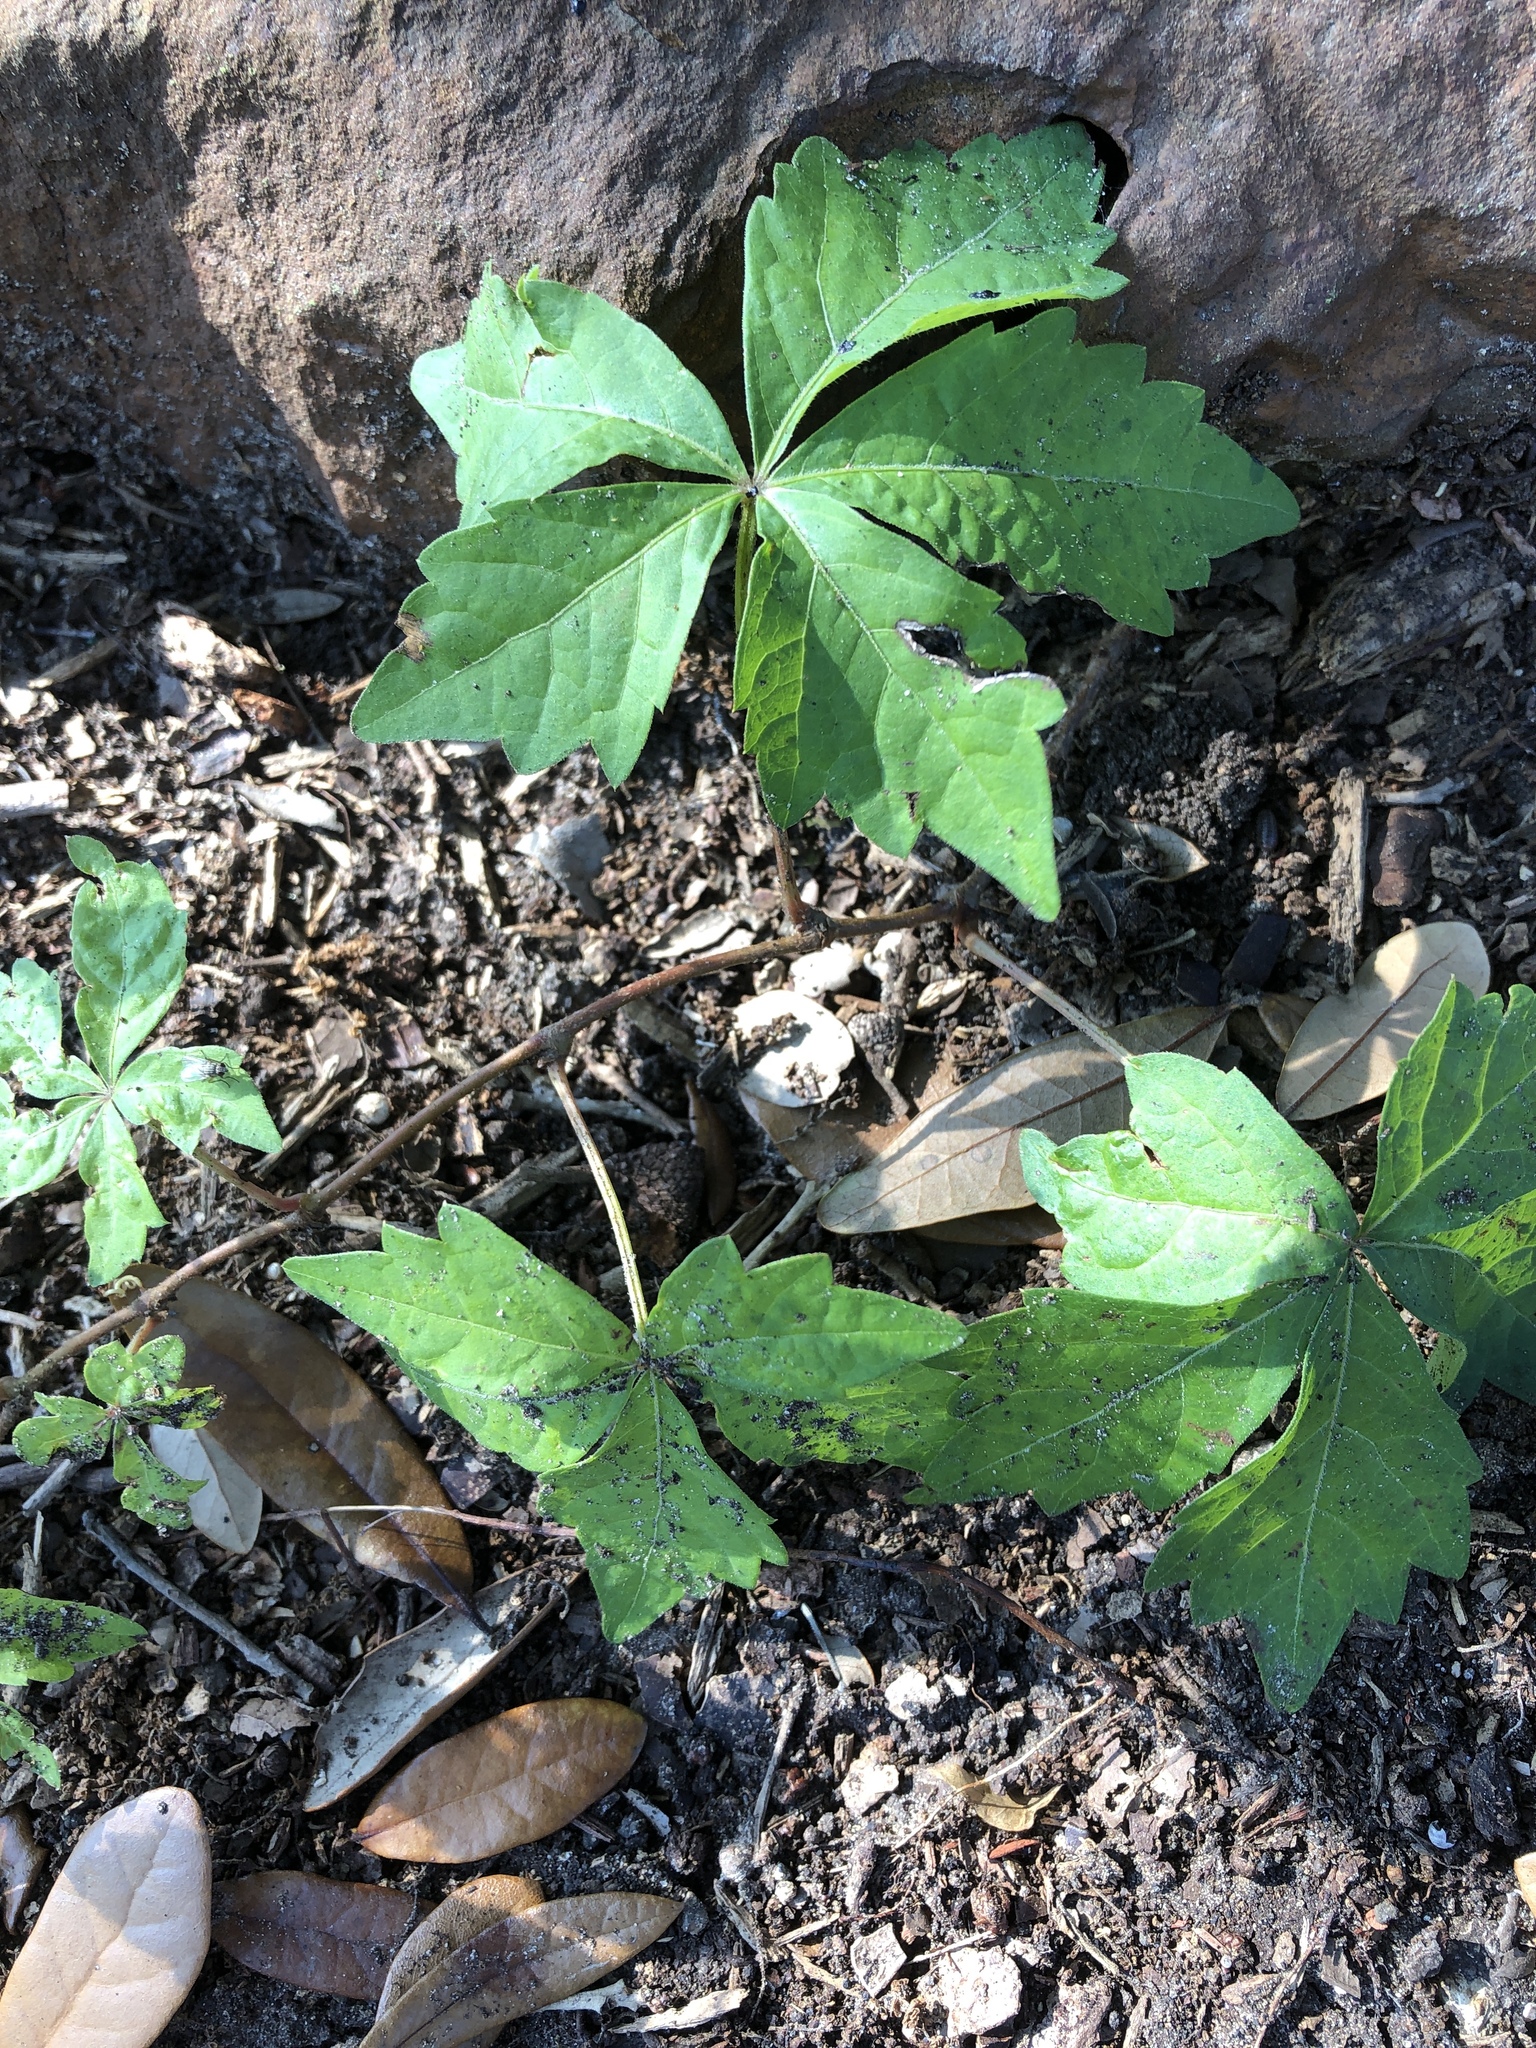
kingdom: Plantae
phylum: Tracheophyta
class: Magnoliopsida
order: Vitales
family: Vitaceae
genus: Parthenocissus
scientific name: Parthenocissus quinquefolia
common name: Virginia-creeper
